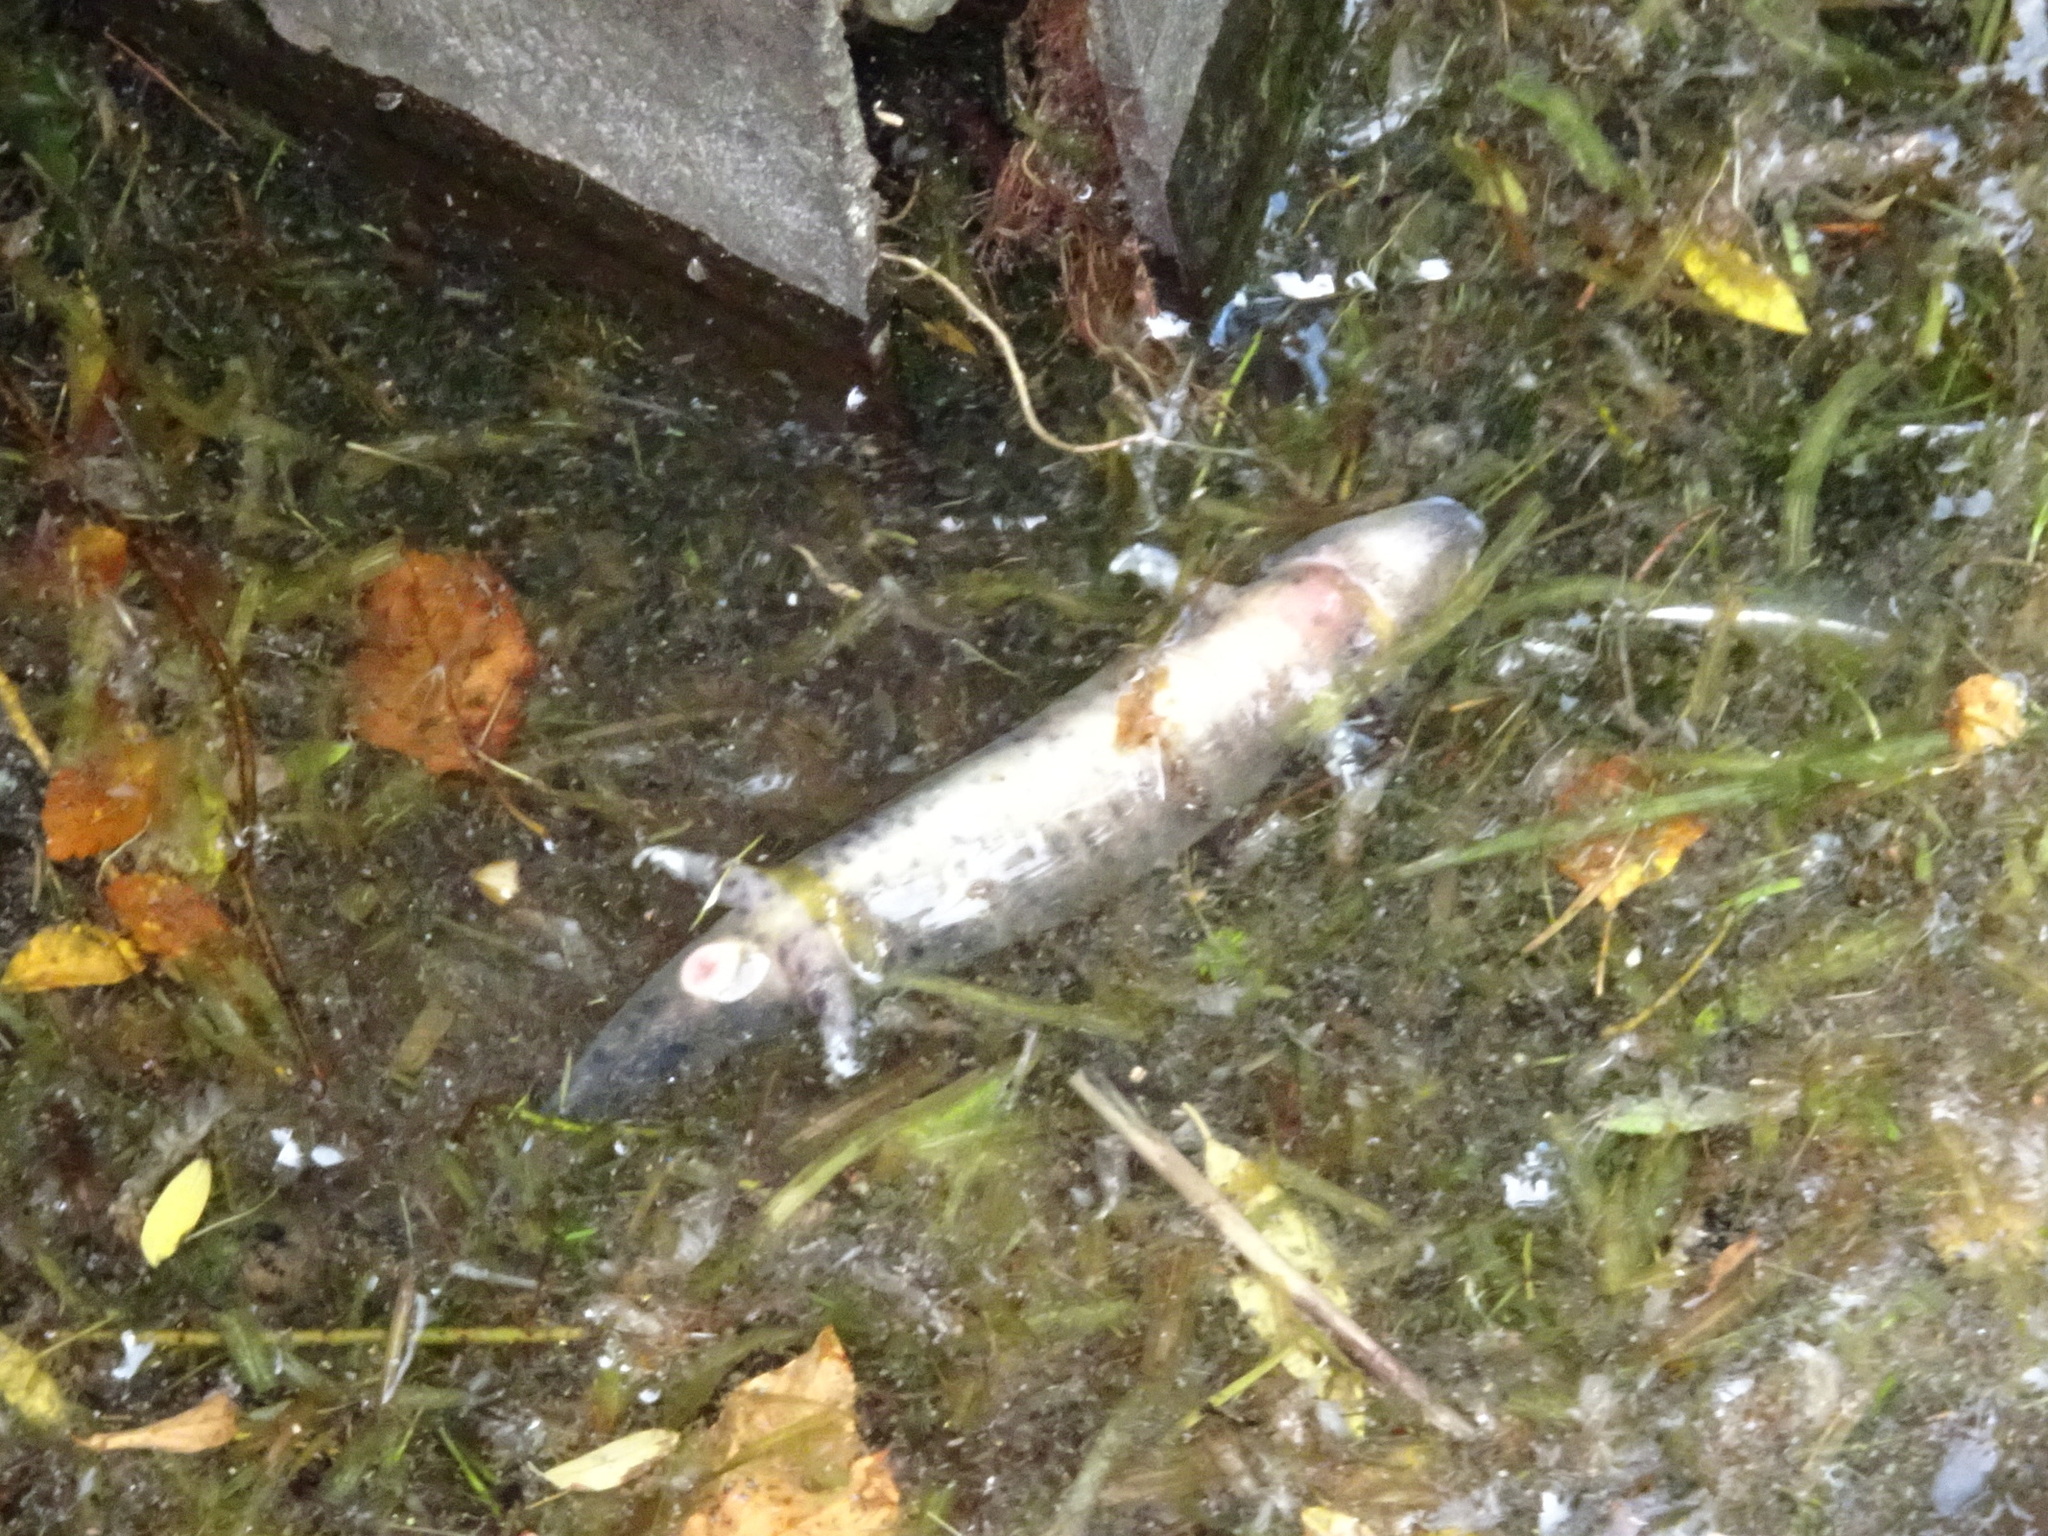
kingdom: Animalia
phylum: Chordata
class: Amphibia
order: Caudata
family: Proteidae
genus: Necturus
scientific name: Necturus maculosus
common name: Mudpuppy
